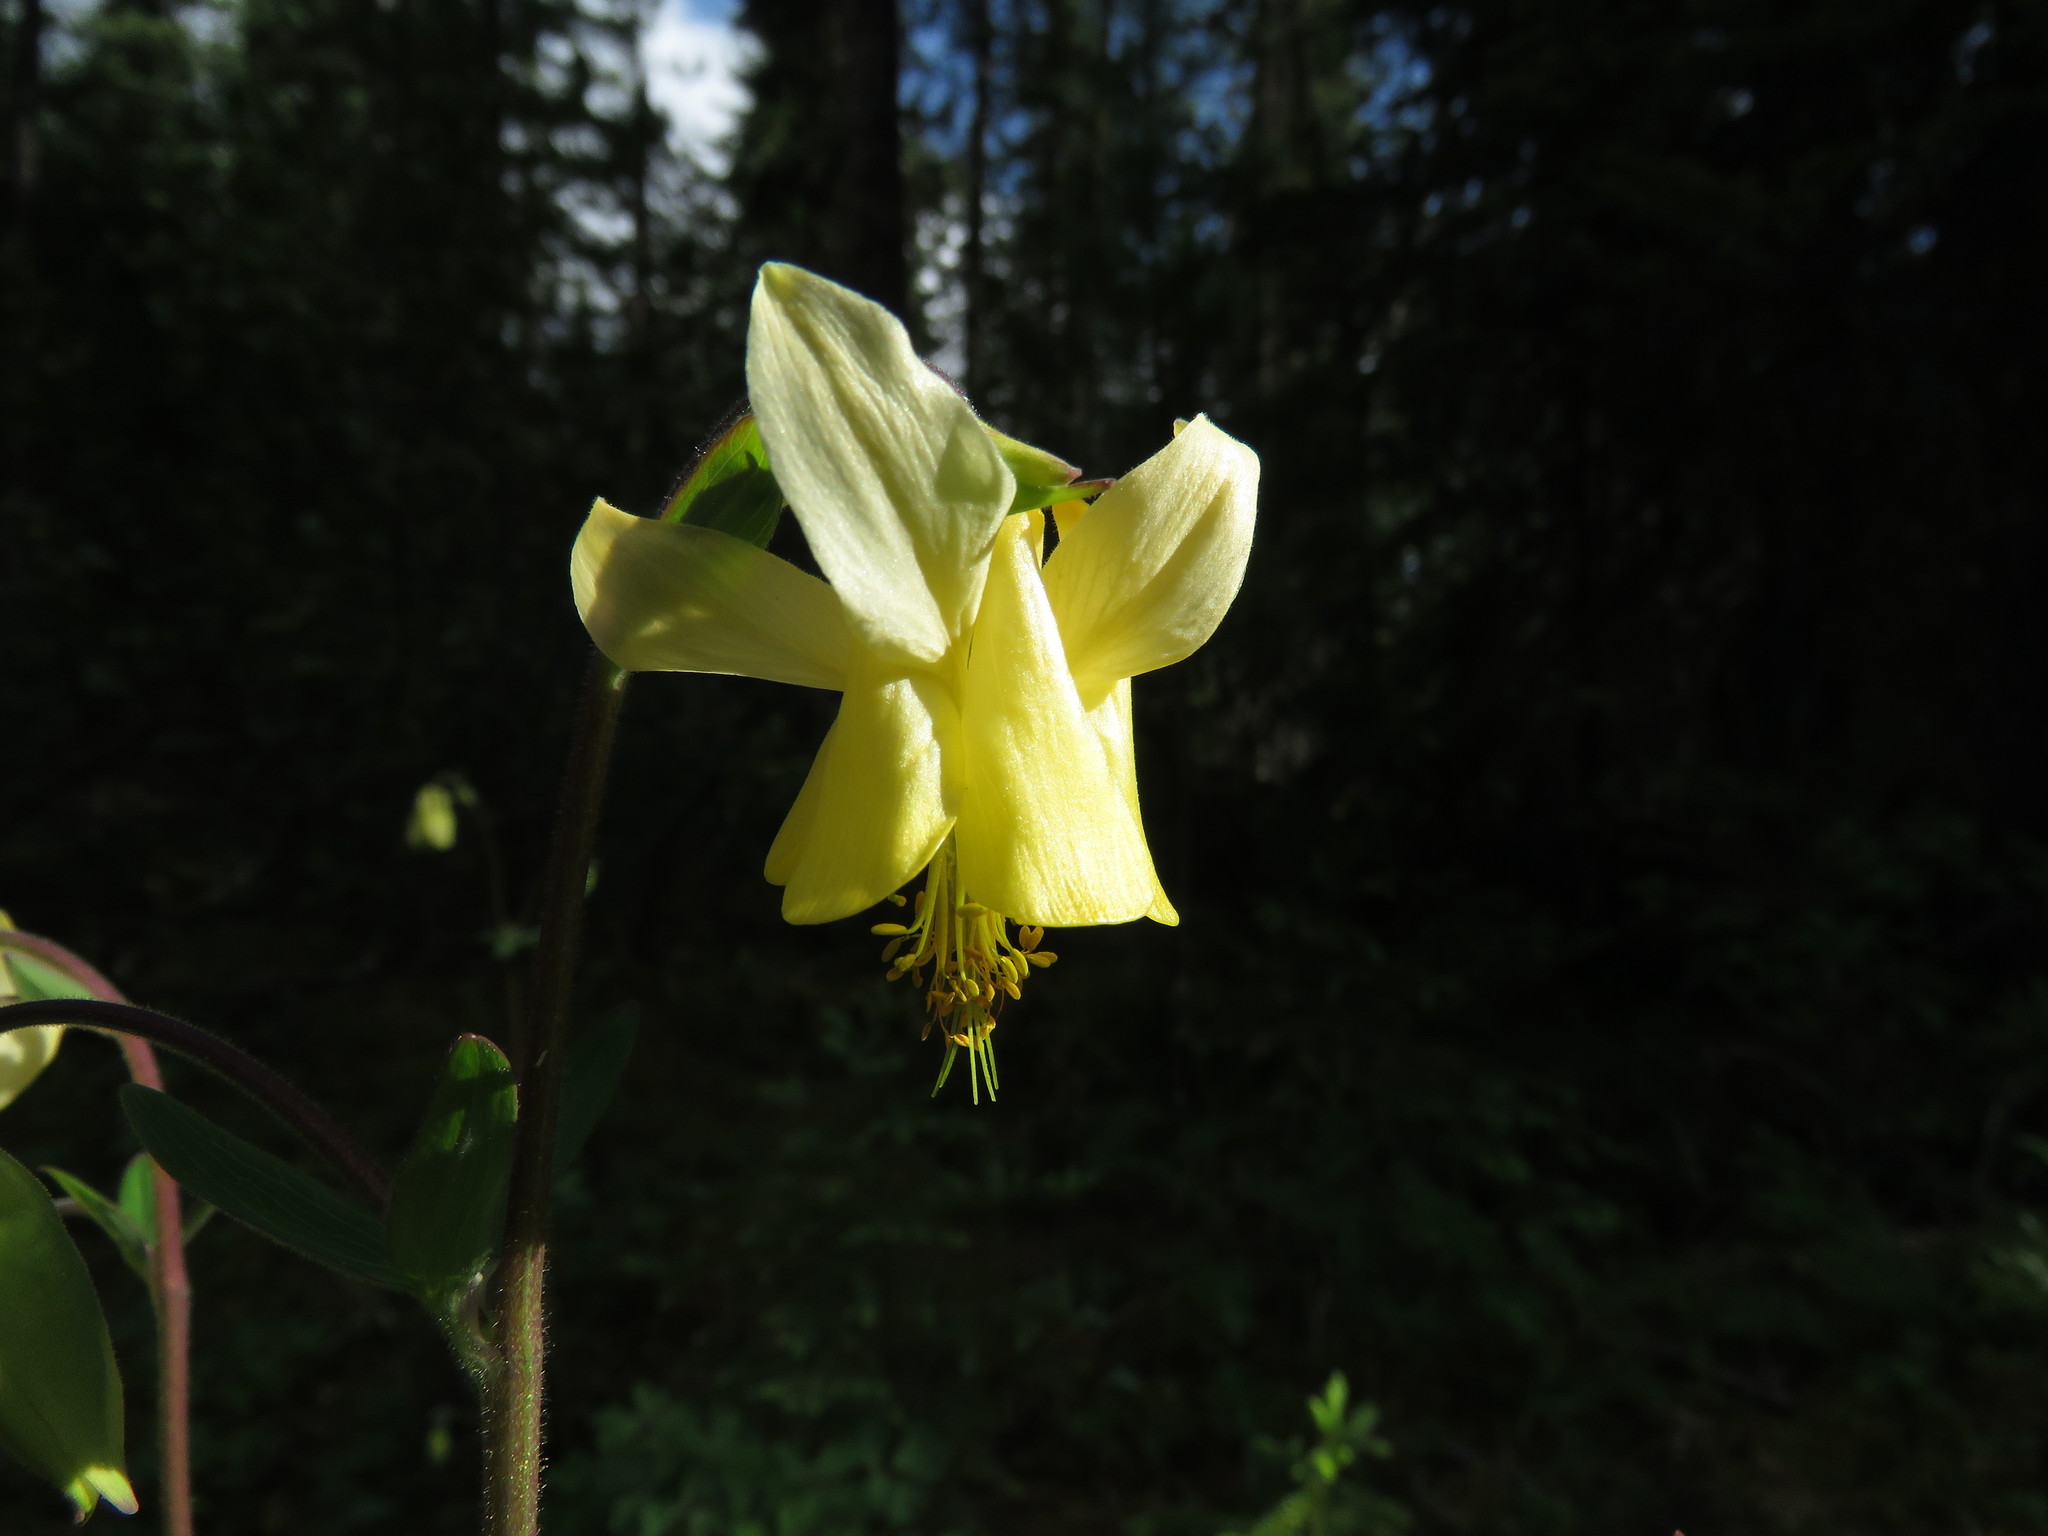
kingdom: Plantae
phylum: Tracheophyta
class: Magnoliopsida
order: Ranunculales
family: Ranunculaceae
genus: Aquilegia
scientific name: Aquilegia flavescens
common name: Yellow columbine
